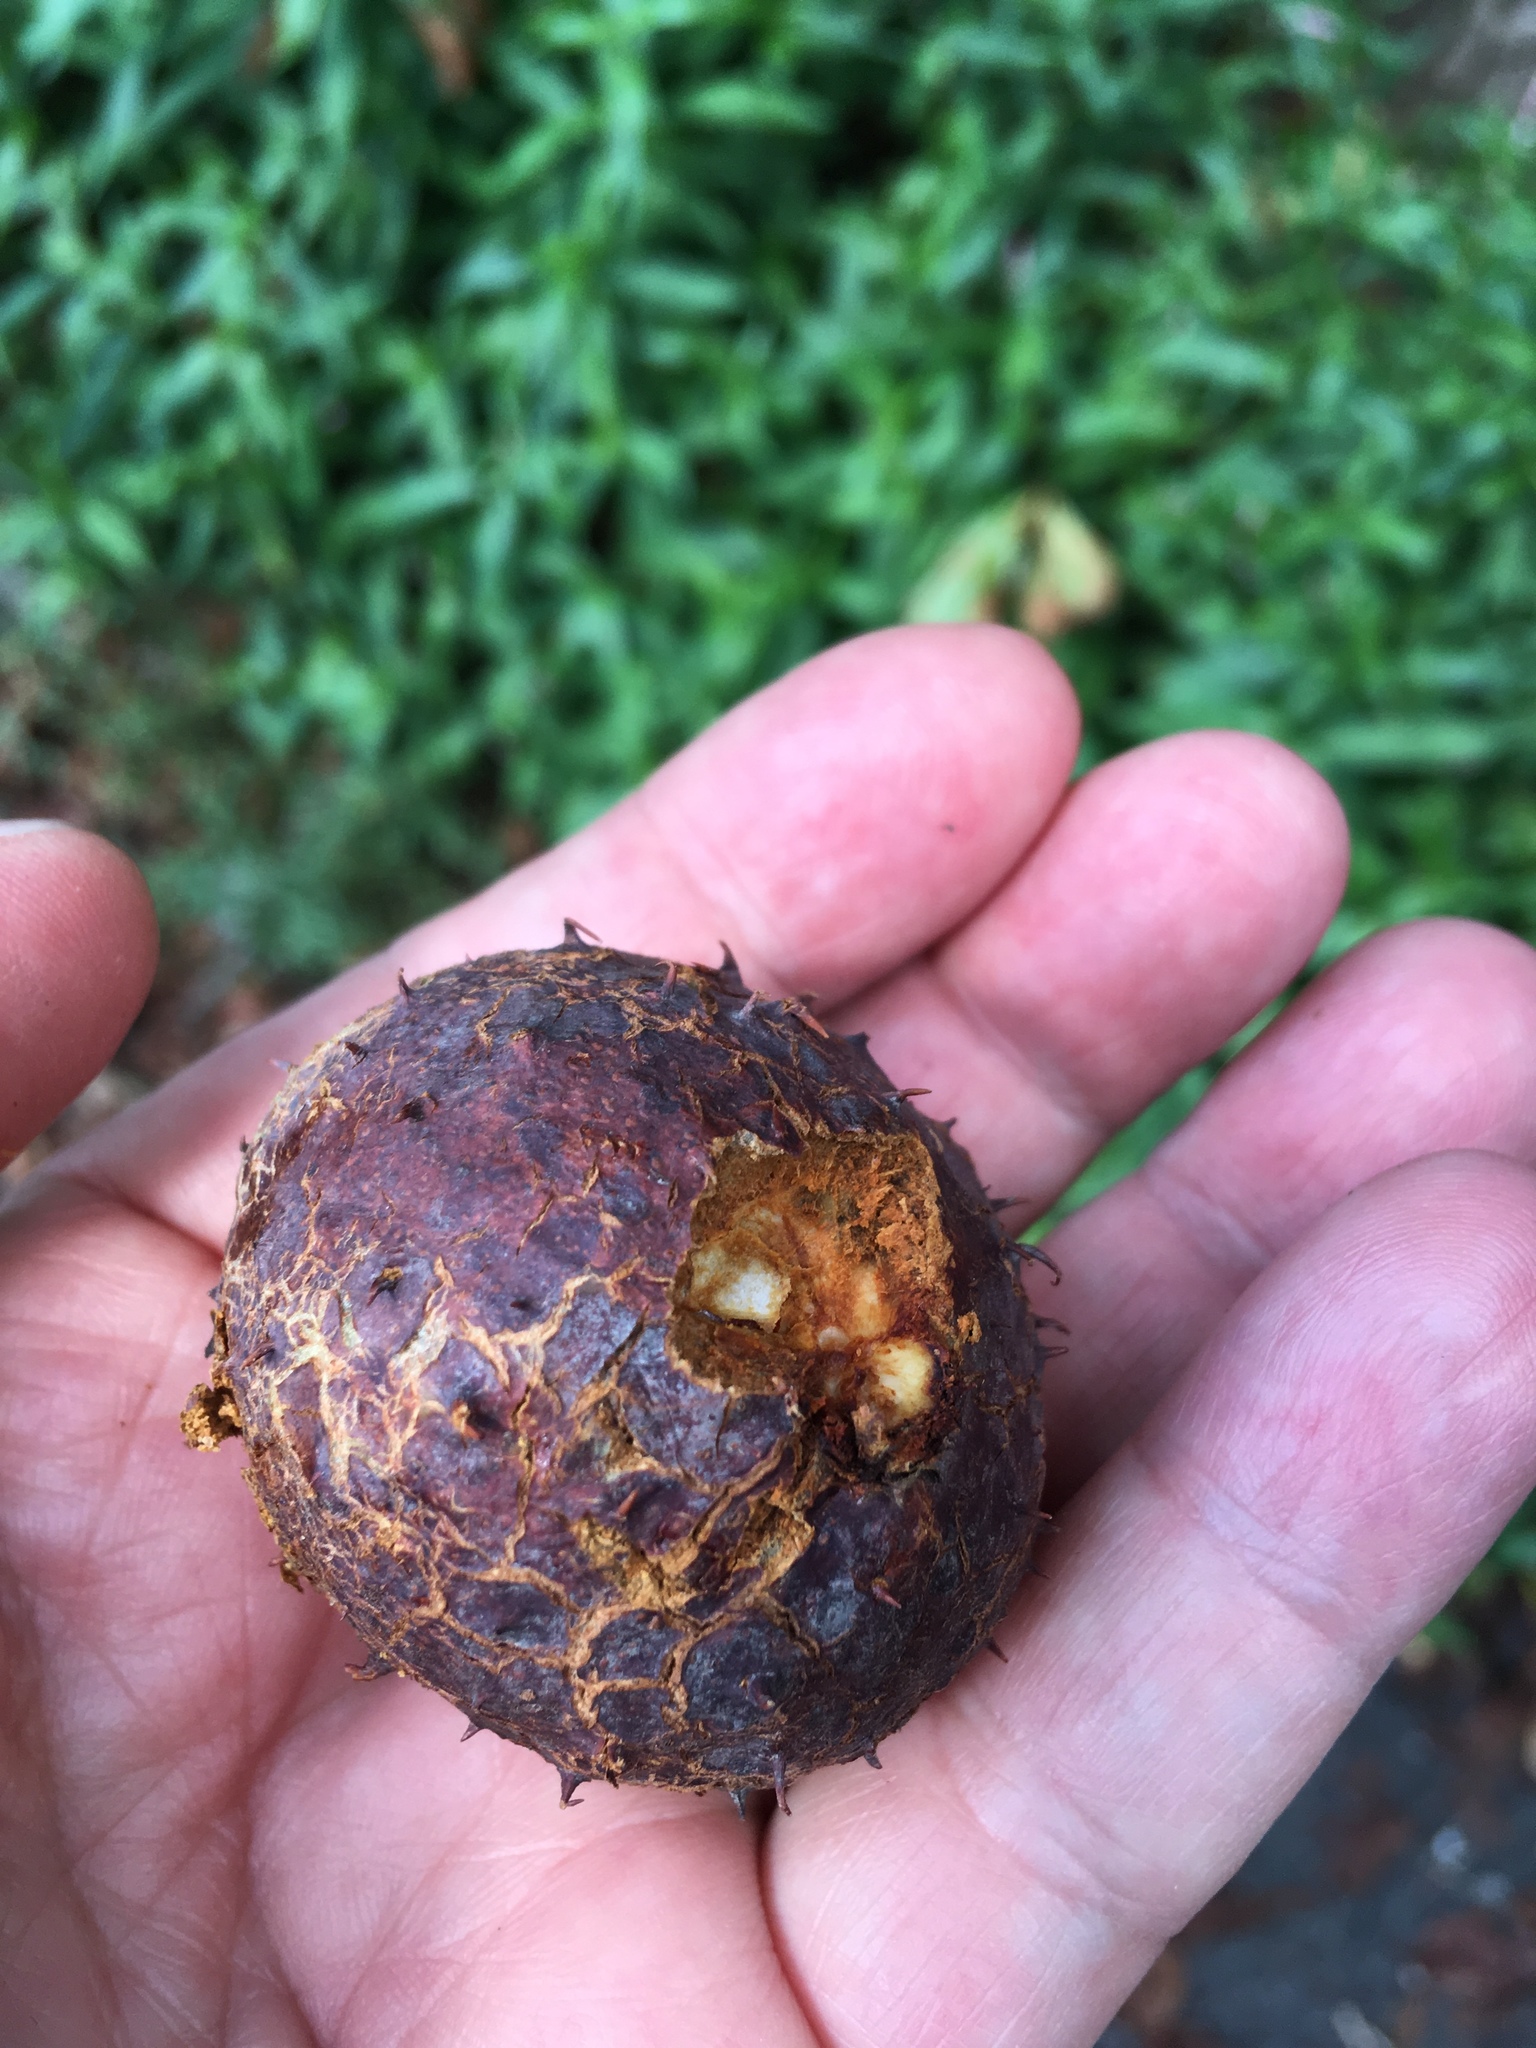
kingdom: Plantae
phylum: Tracheophyta
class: Magnoliopsida
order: Sapindales
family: Sapindaceae
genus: Aesculus
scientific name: Aesculus hippocastanum
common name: Horse-chestnut
